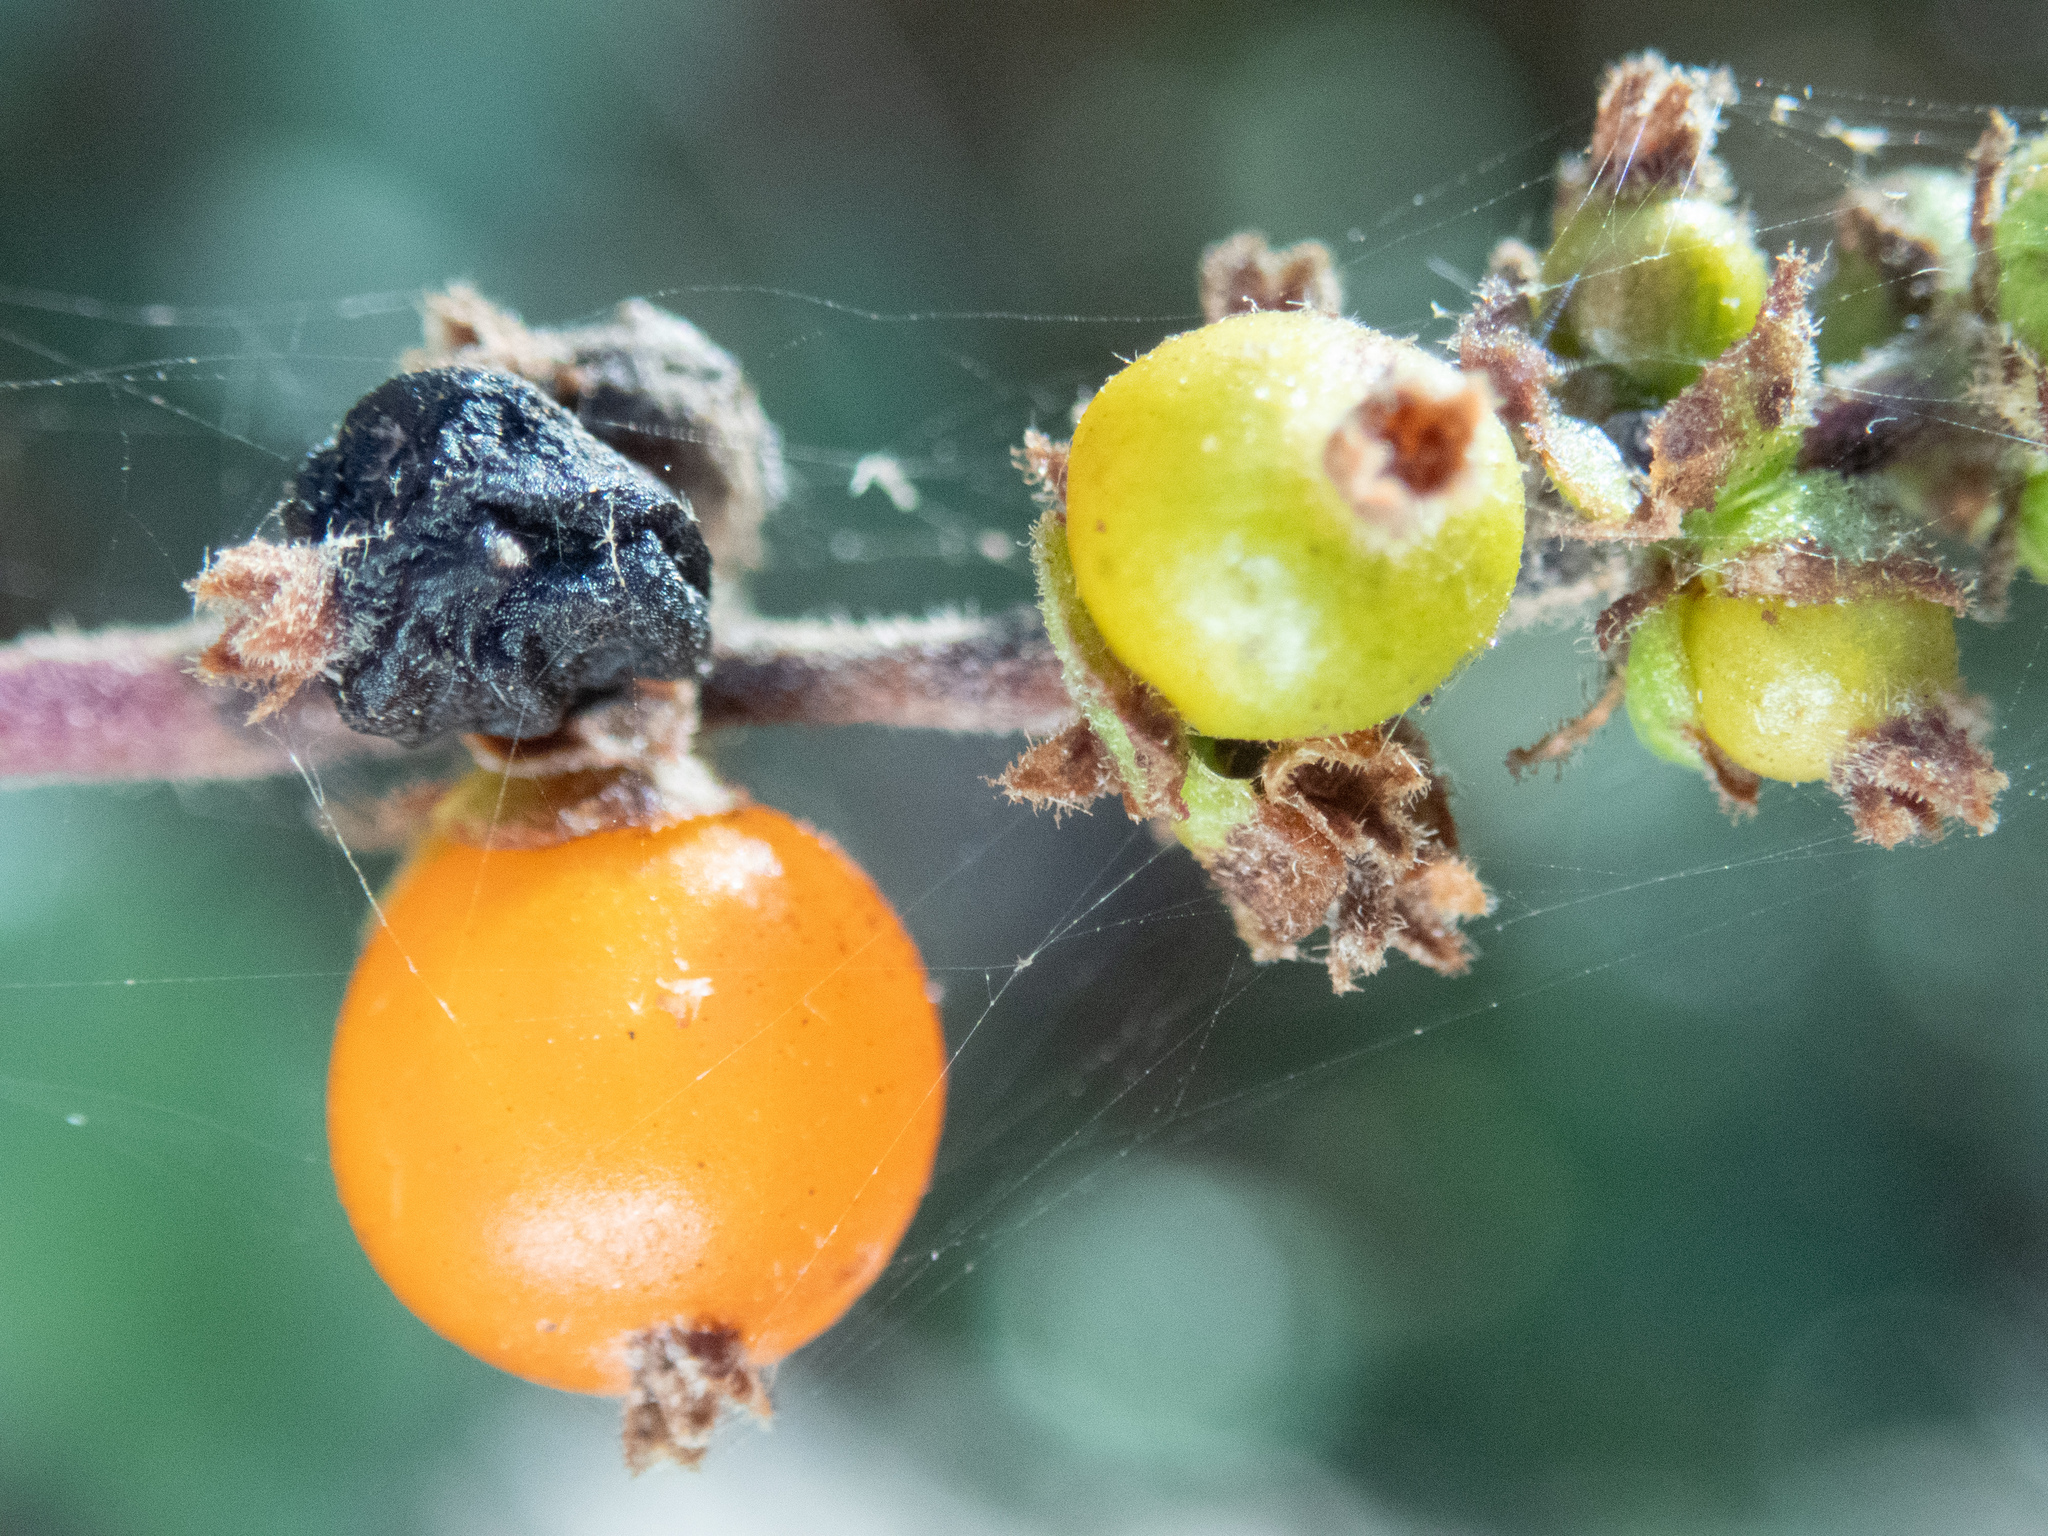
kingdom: Plantae
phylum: Tracheophyta
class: Magnoliopsida
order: Dipsacales
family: Caprifoliaceae
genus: Lonicera
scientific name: Lonicera subspicata
